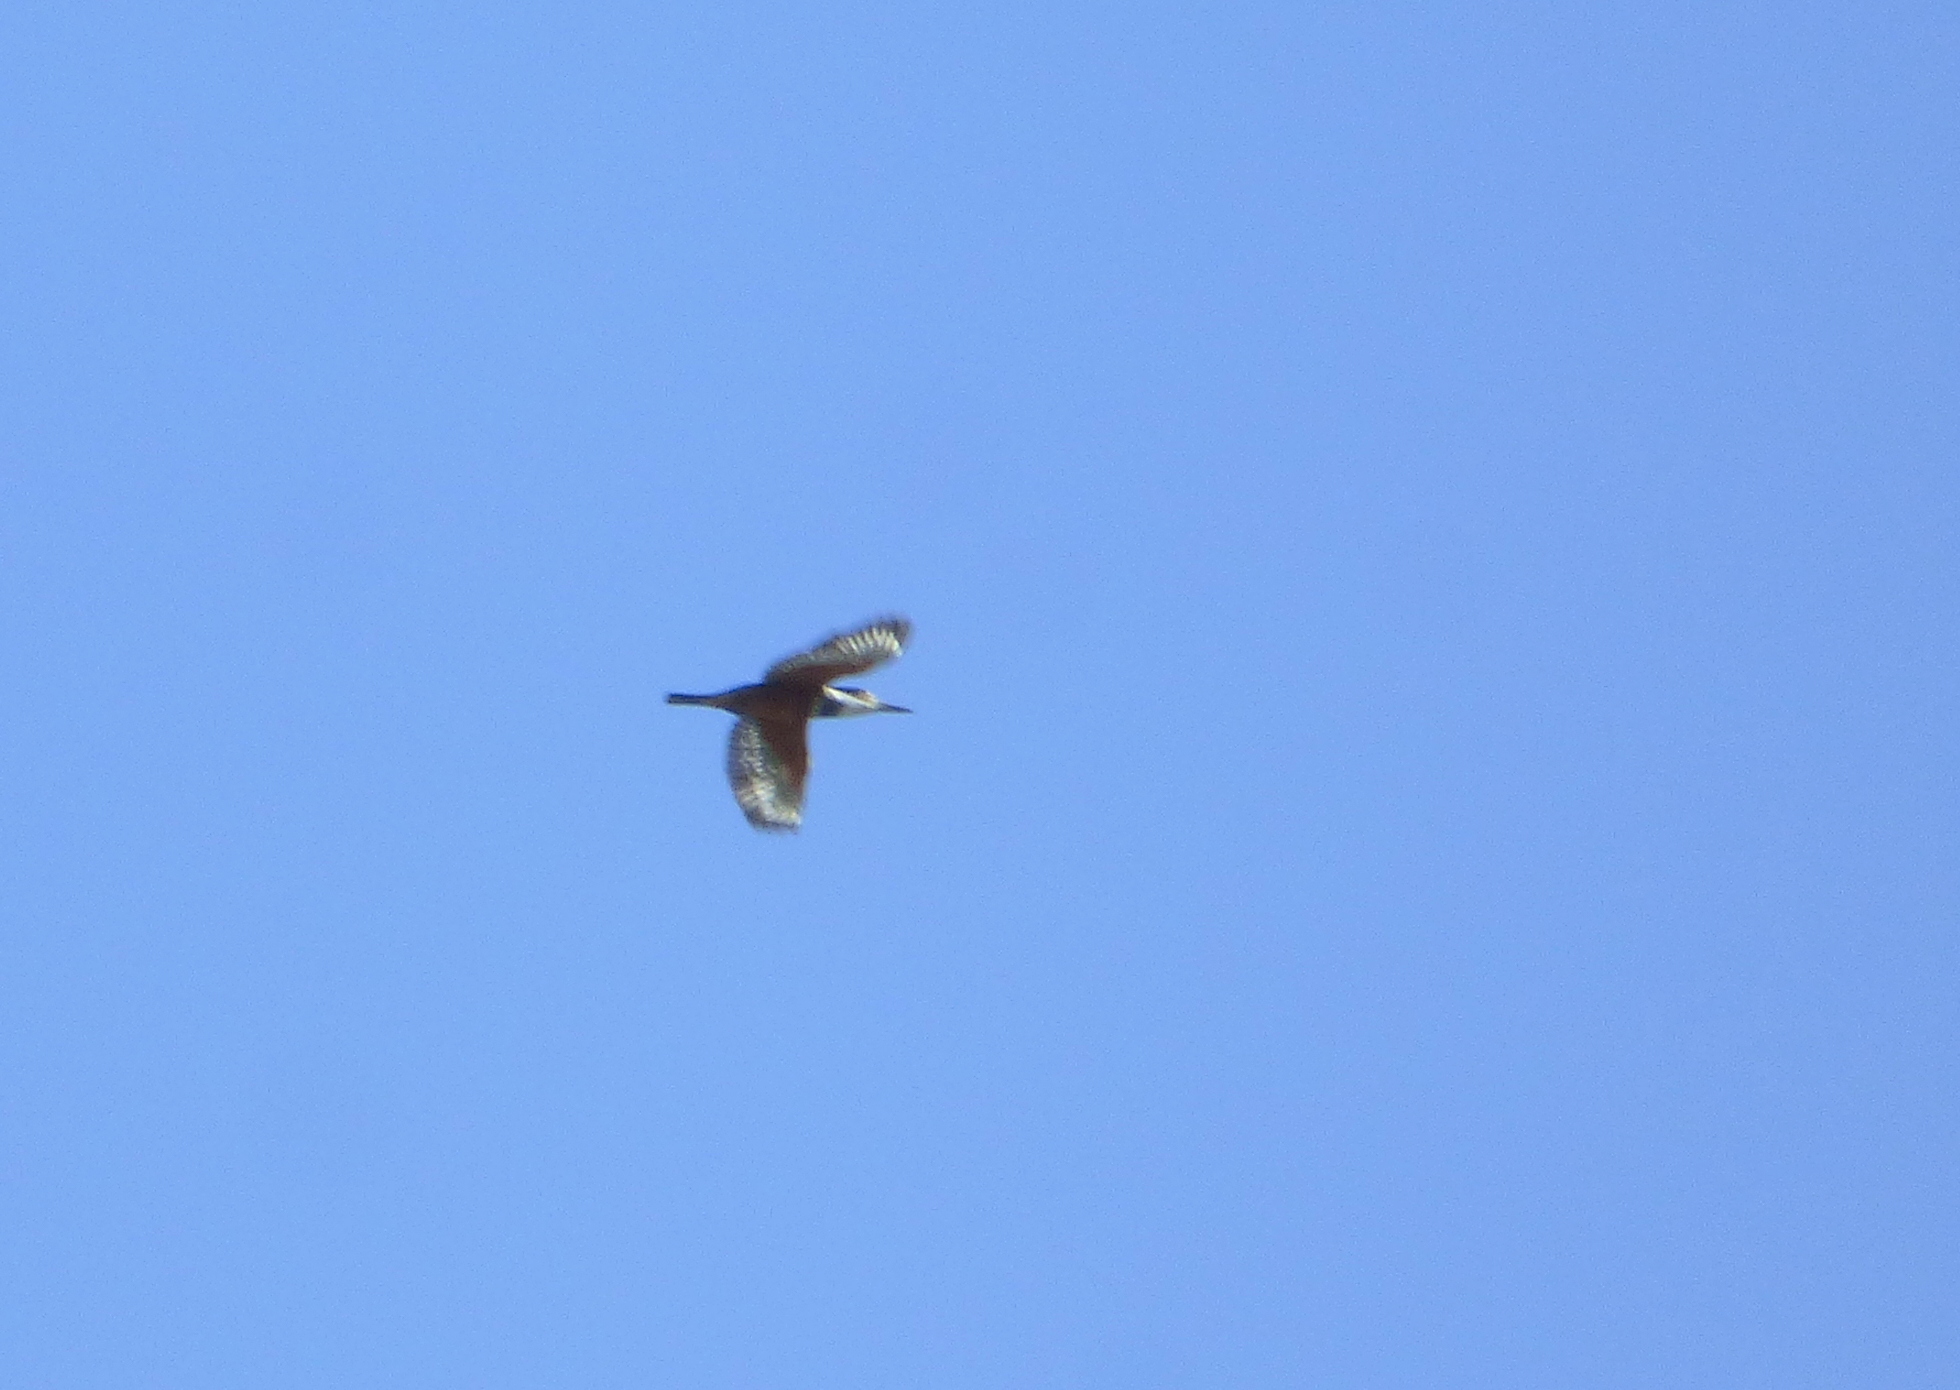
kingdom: Animalia
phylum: Chordata
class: Aves
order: Coraciiformes
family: Alcedinidae
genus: Megaceryle
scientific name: Megaceryle torquata
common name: Ringed kingfisher
